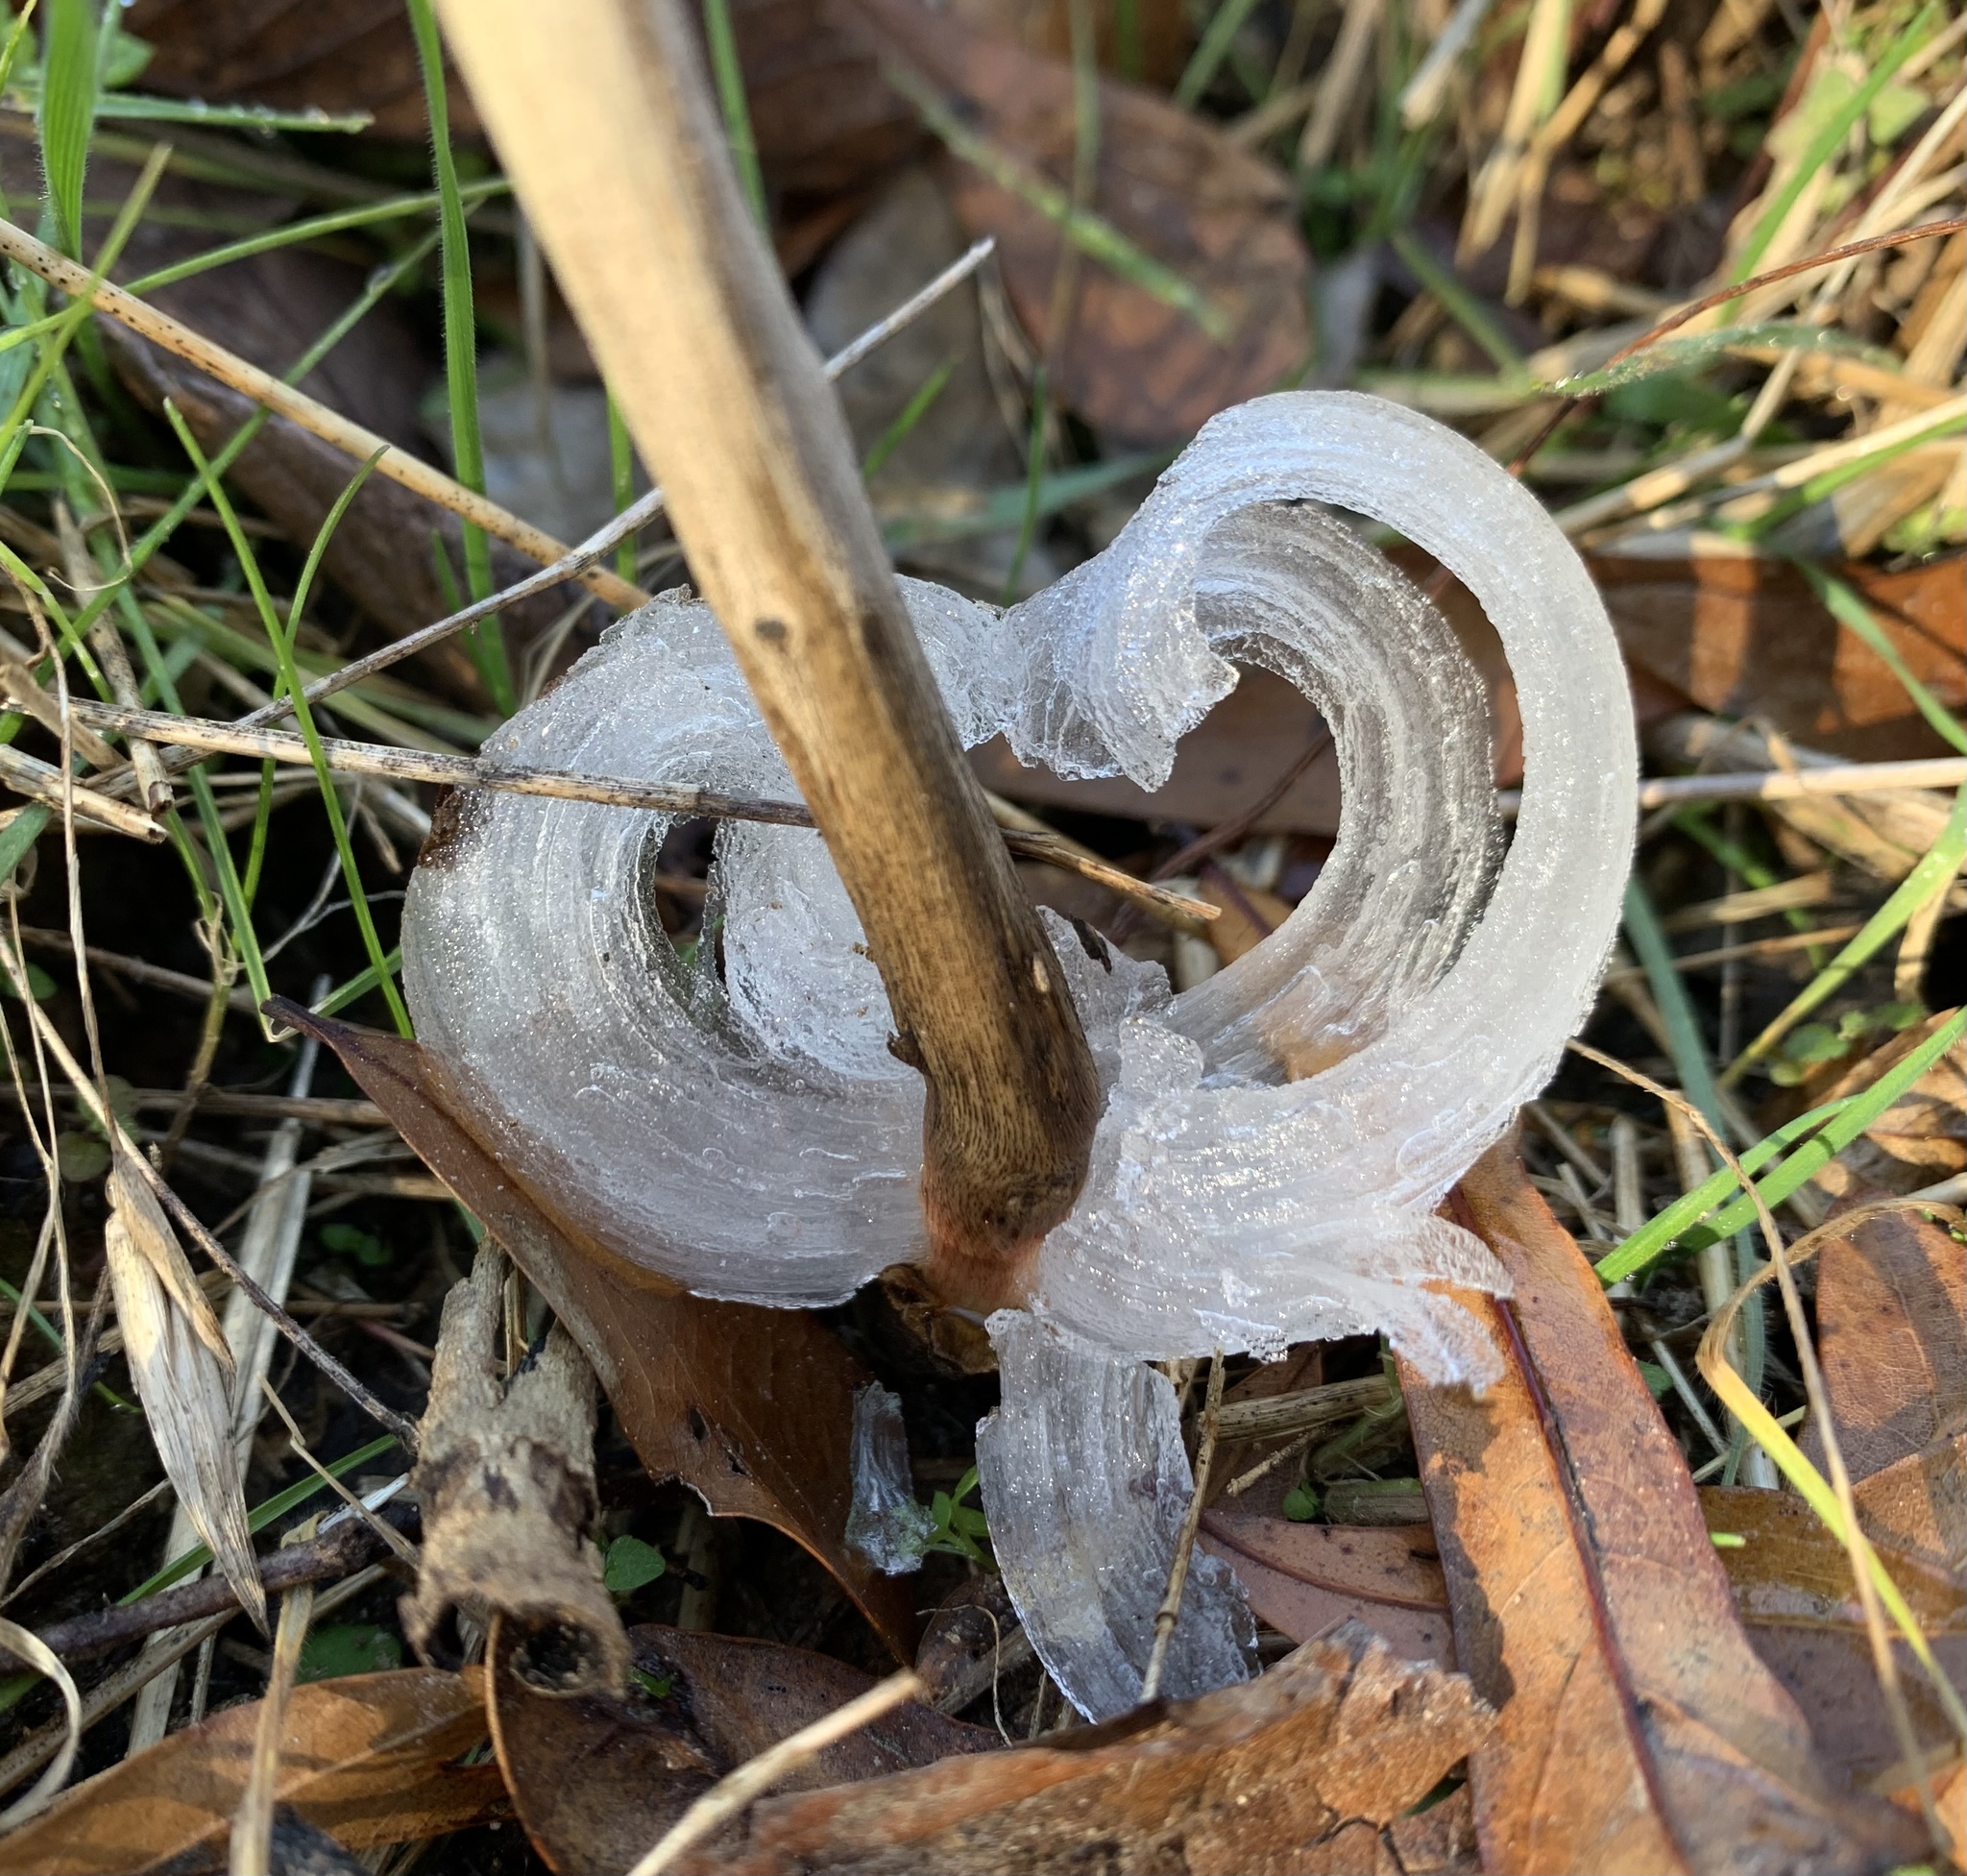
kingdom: Plantae
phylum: Tracheophyta
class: Magnoliopsida
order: Asterales
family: Asteraceae
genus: Verbesina
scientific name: Verbesina virginica
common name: Frostweed
